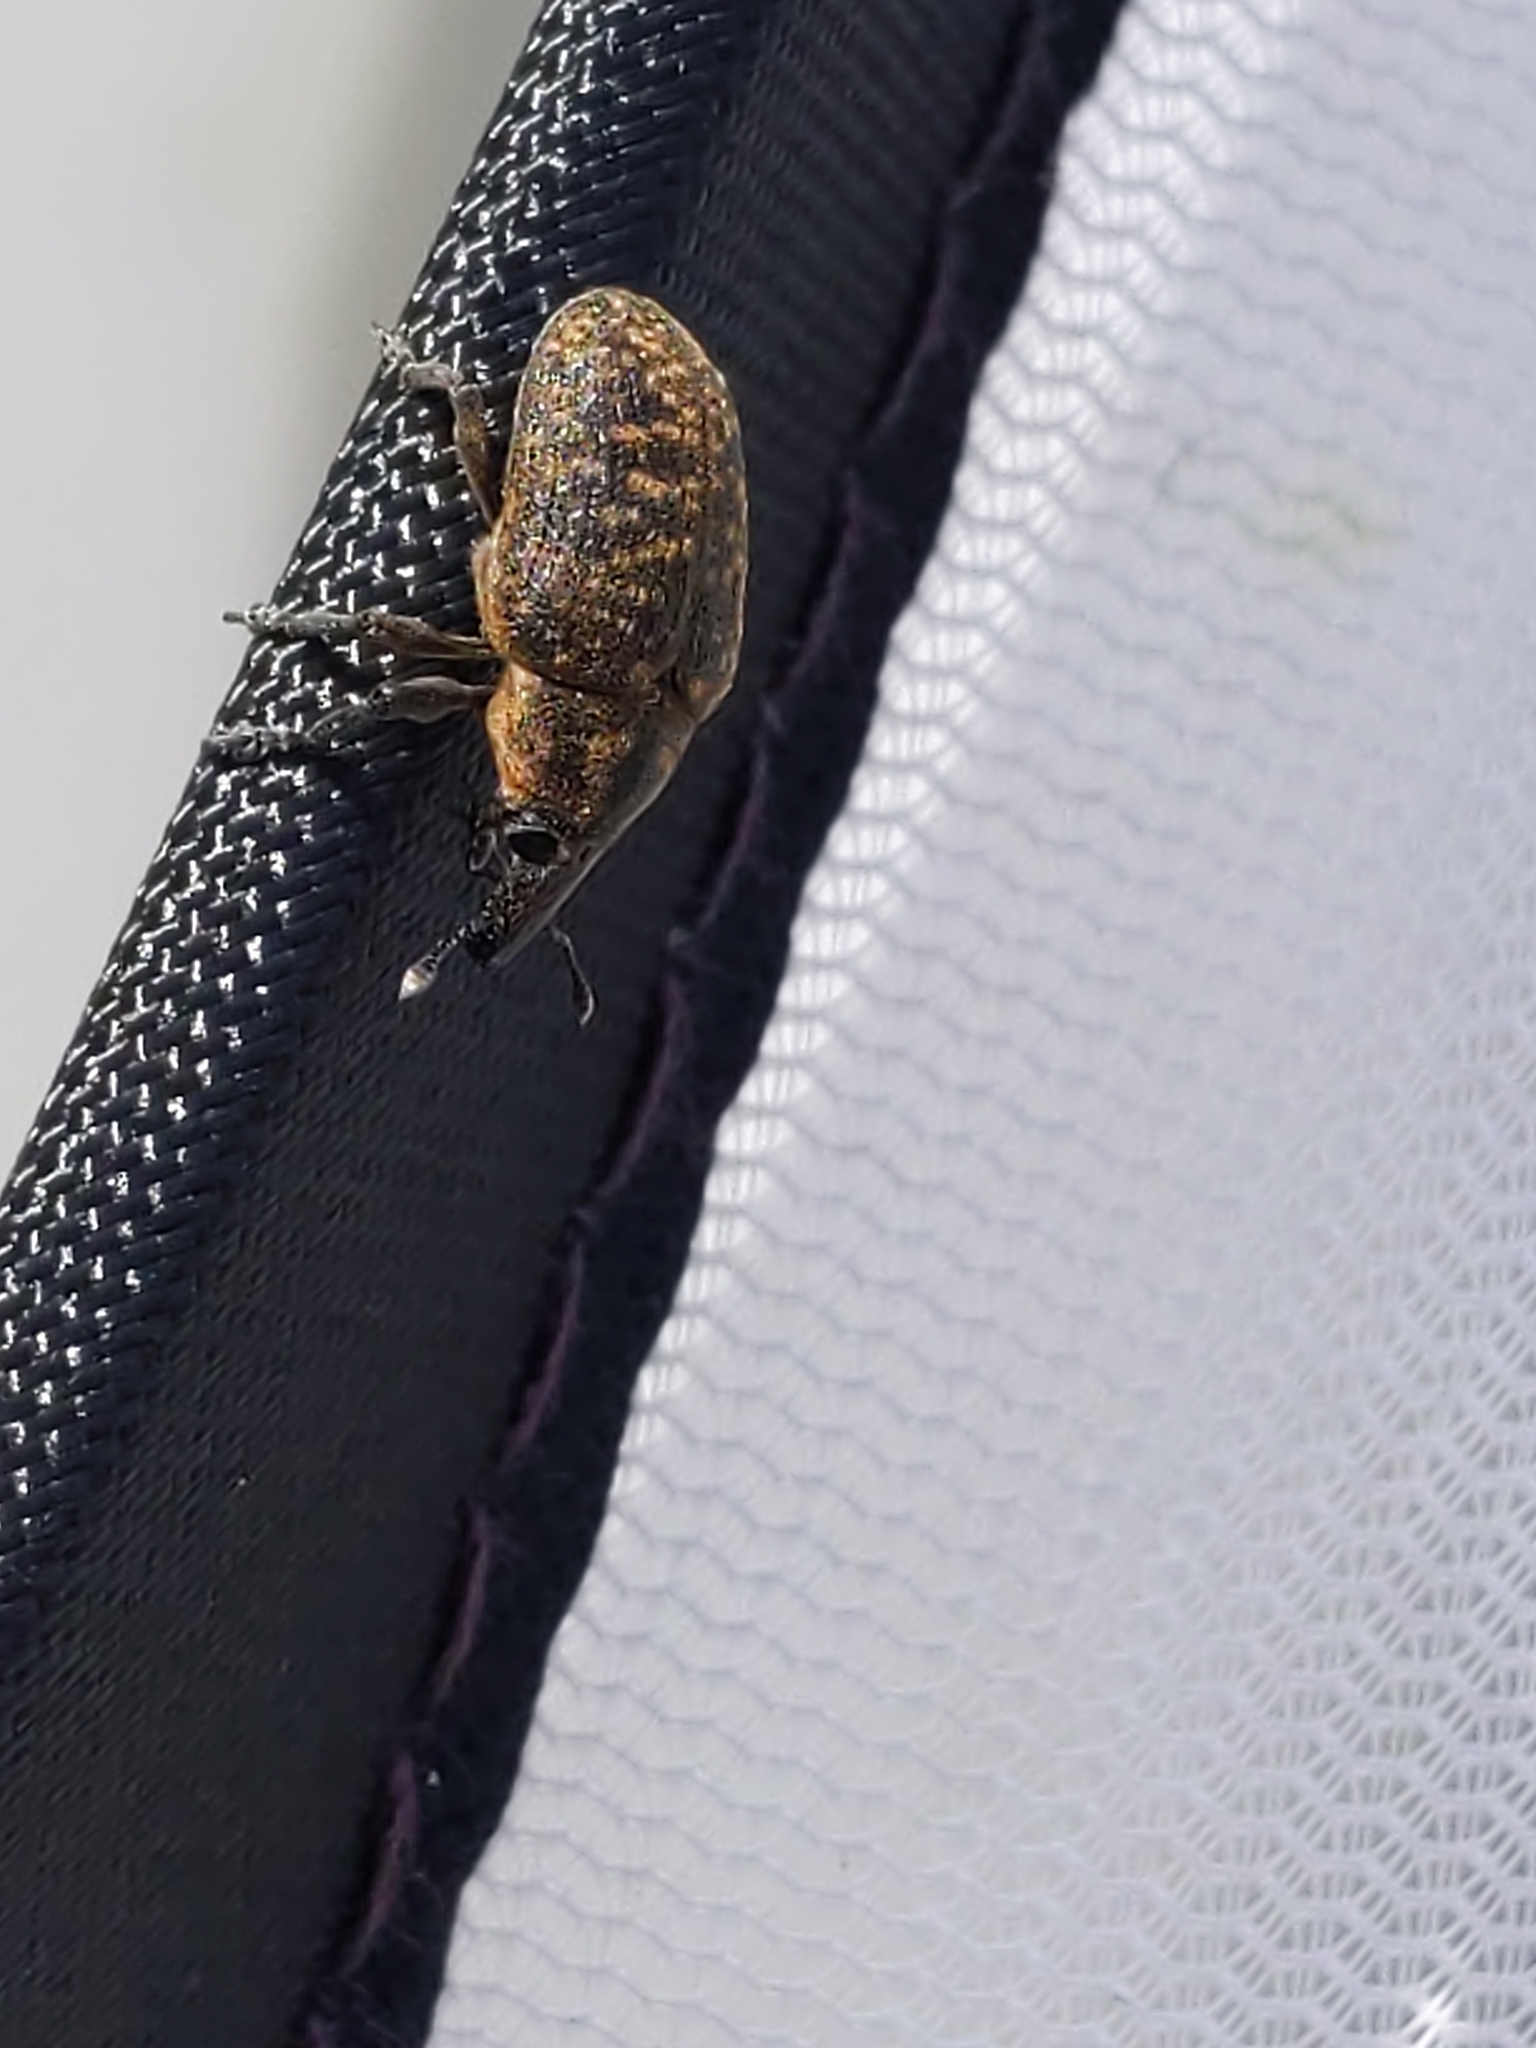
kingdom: Animalia
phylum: Arthropoda
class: Insecta
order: Coleoptera
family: Curculionidae
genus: Larinus
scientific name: Larinus turbinatus
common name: Weevil
